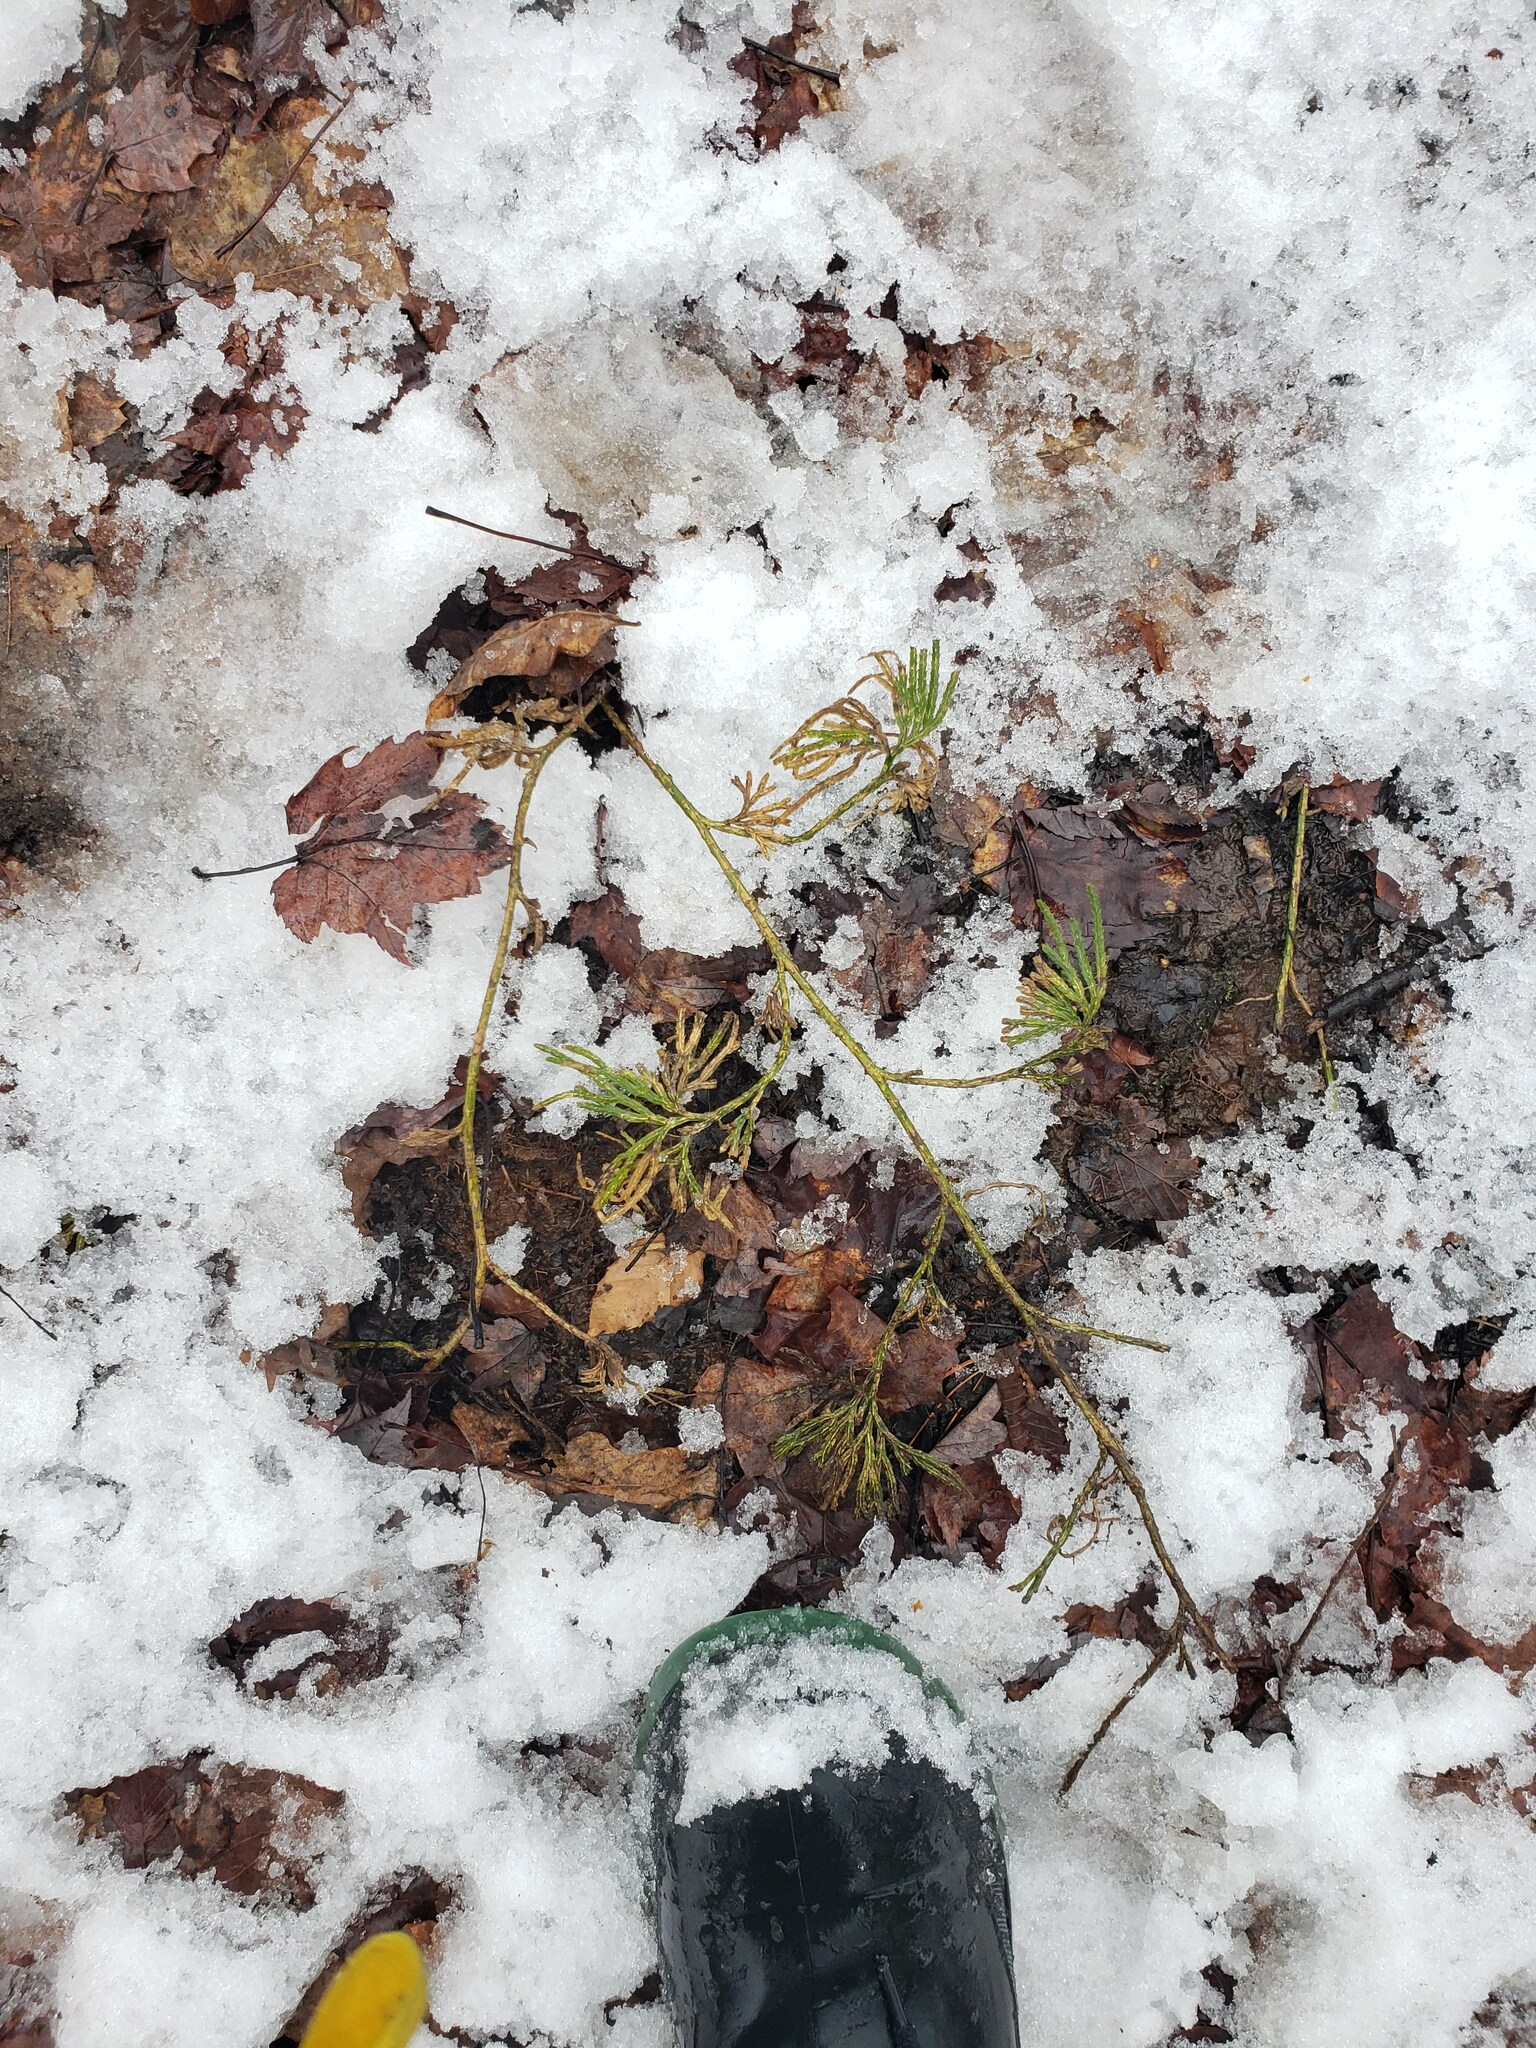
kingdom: Plantae
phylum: Tracheophyta
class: Lycopodiopsida
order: Lycopodiales
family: Lycopodiaceae
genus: Diphasiastrum
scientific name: Diphasiastrum digitatum
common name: Southern running-pine
